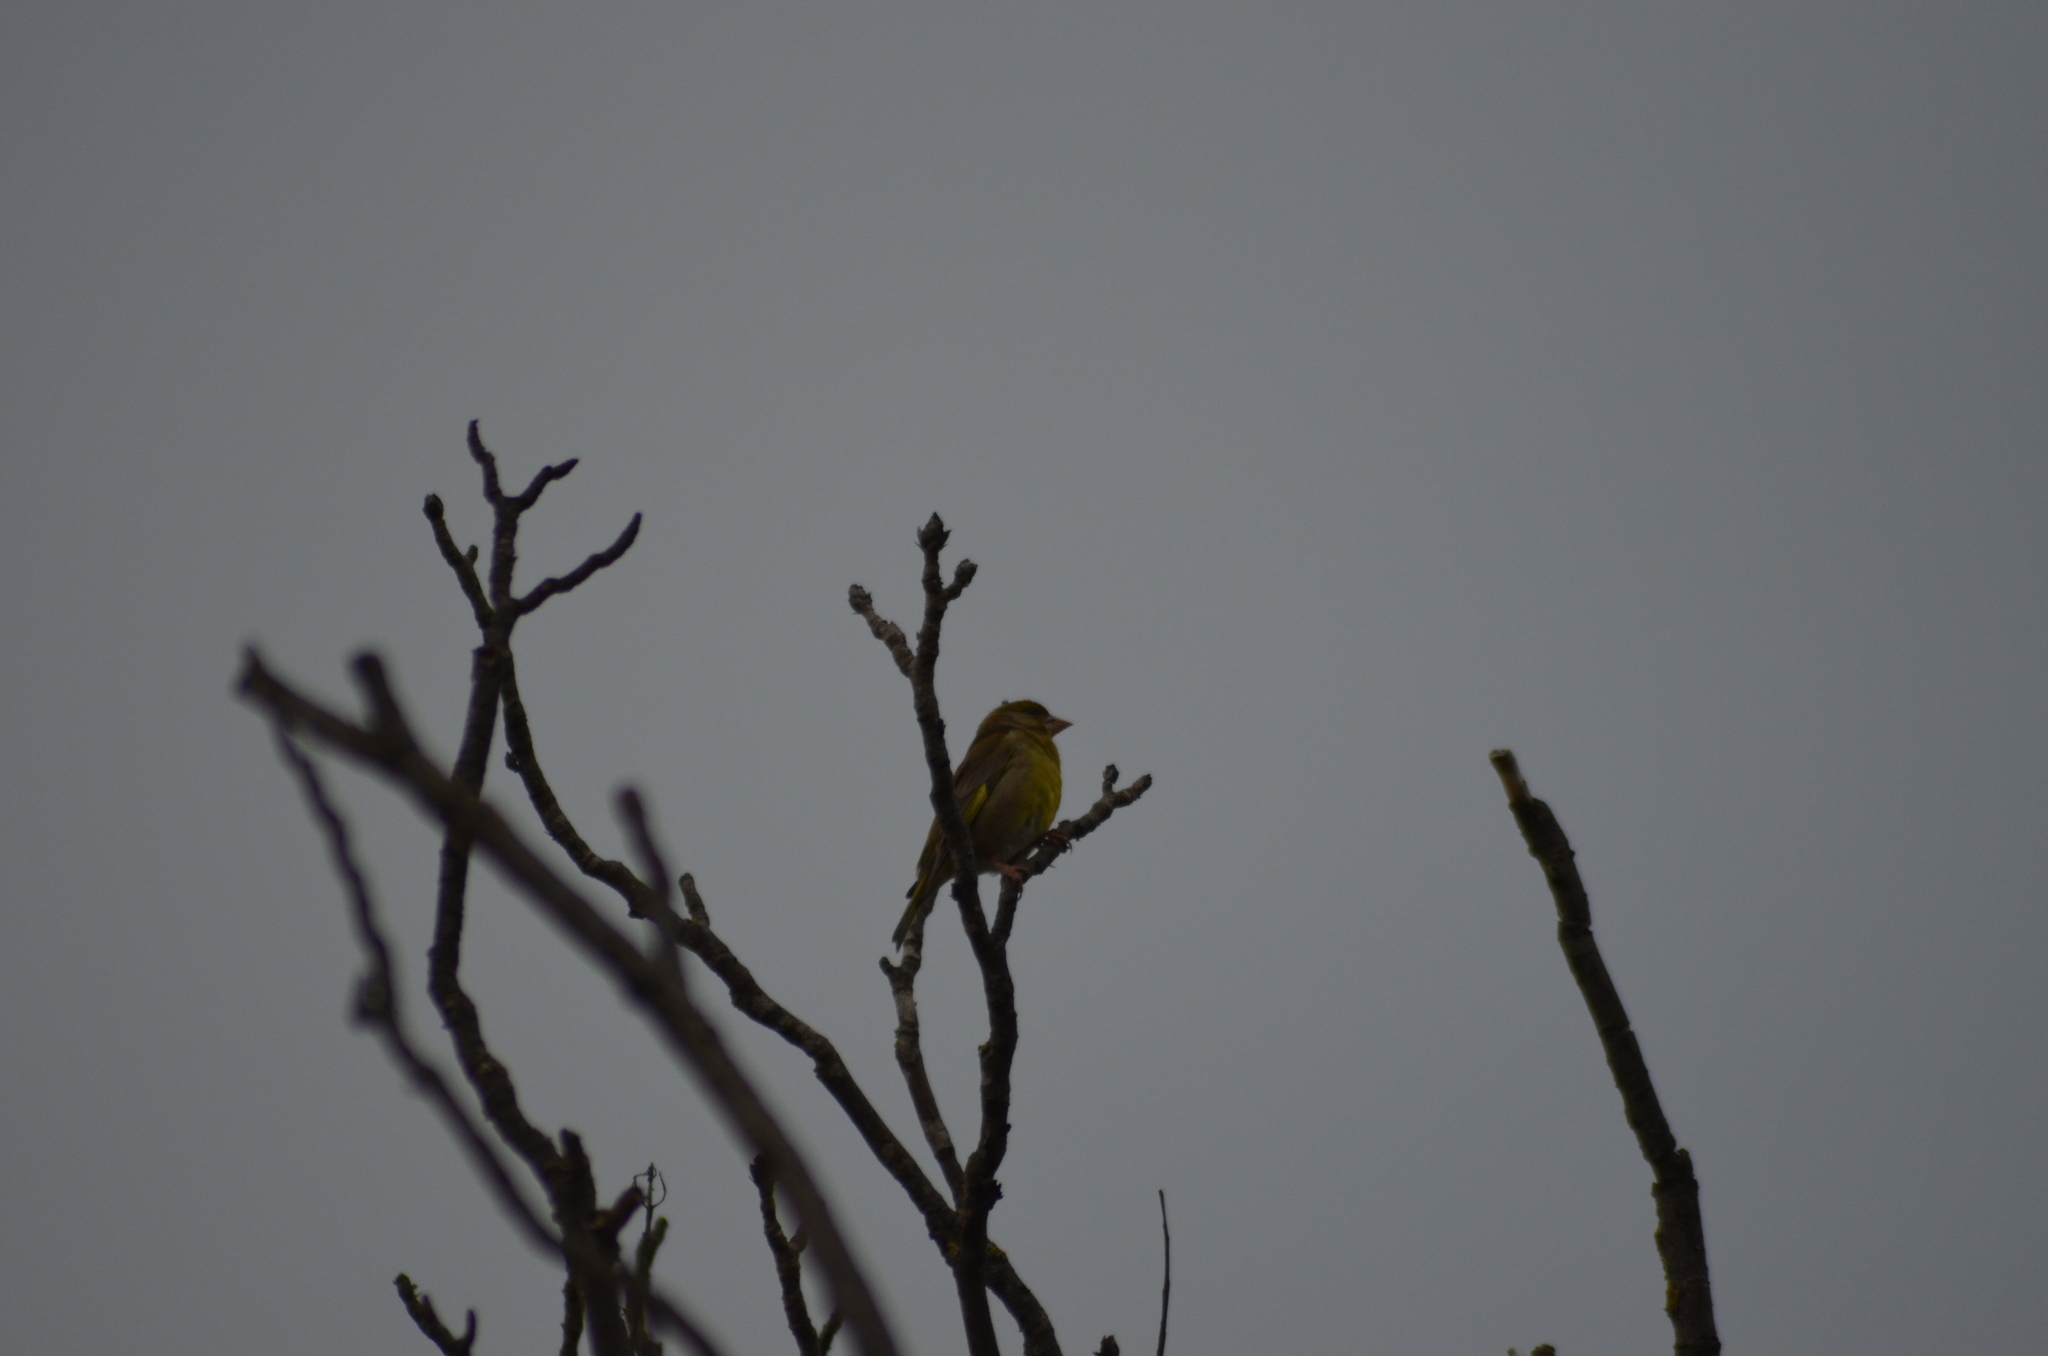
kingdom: Plantae
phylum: Tracheophyta
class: Liliopsida
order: Poales
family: Poaceae
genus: Chloris
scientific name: Chloris chloris
